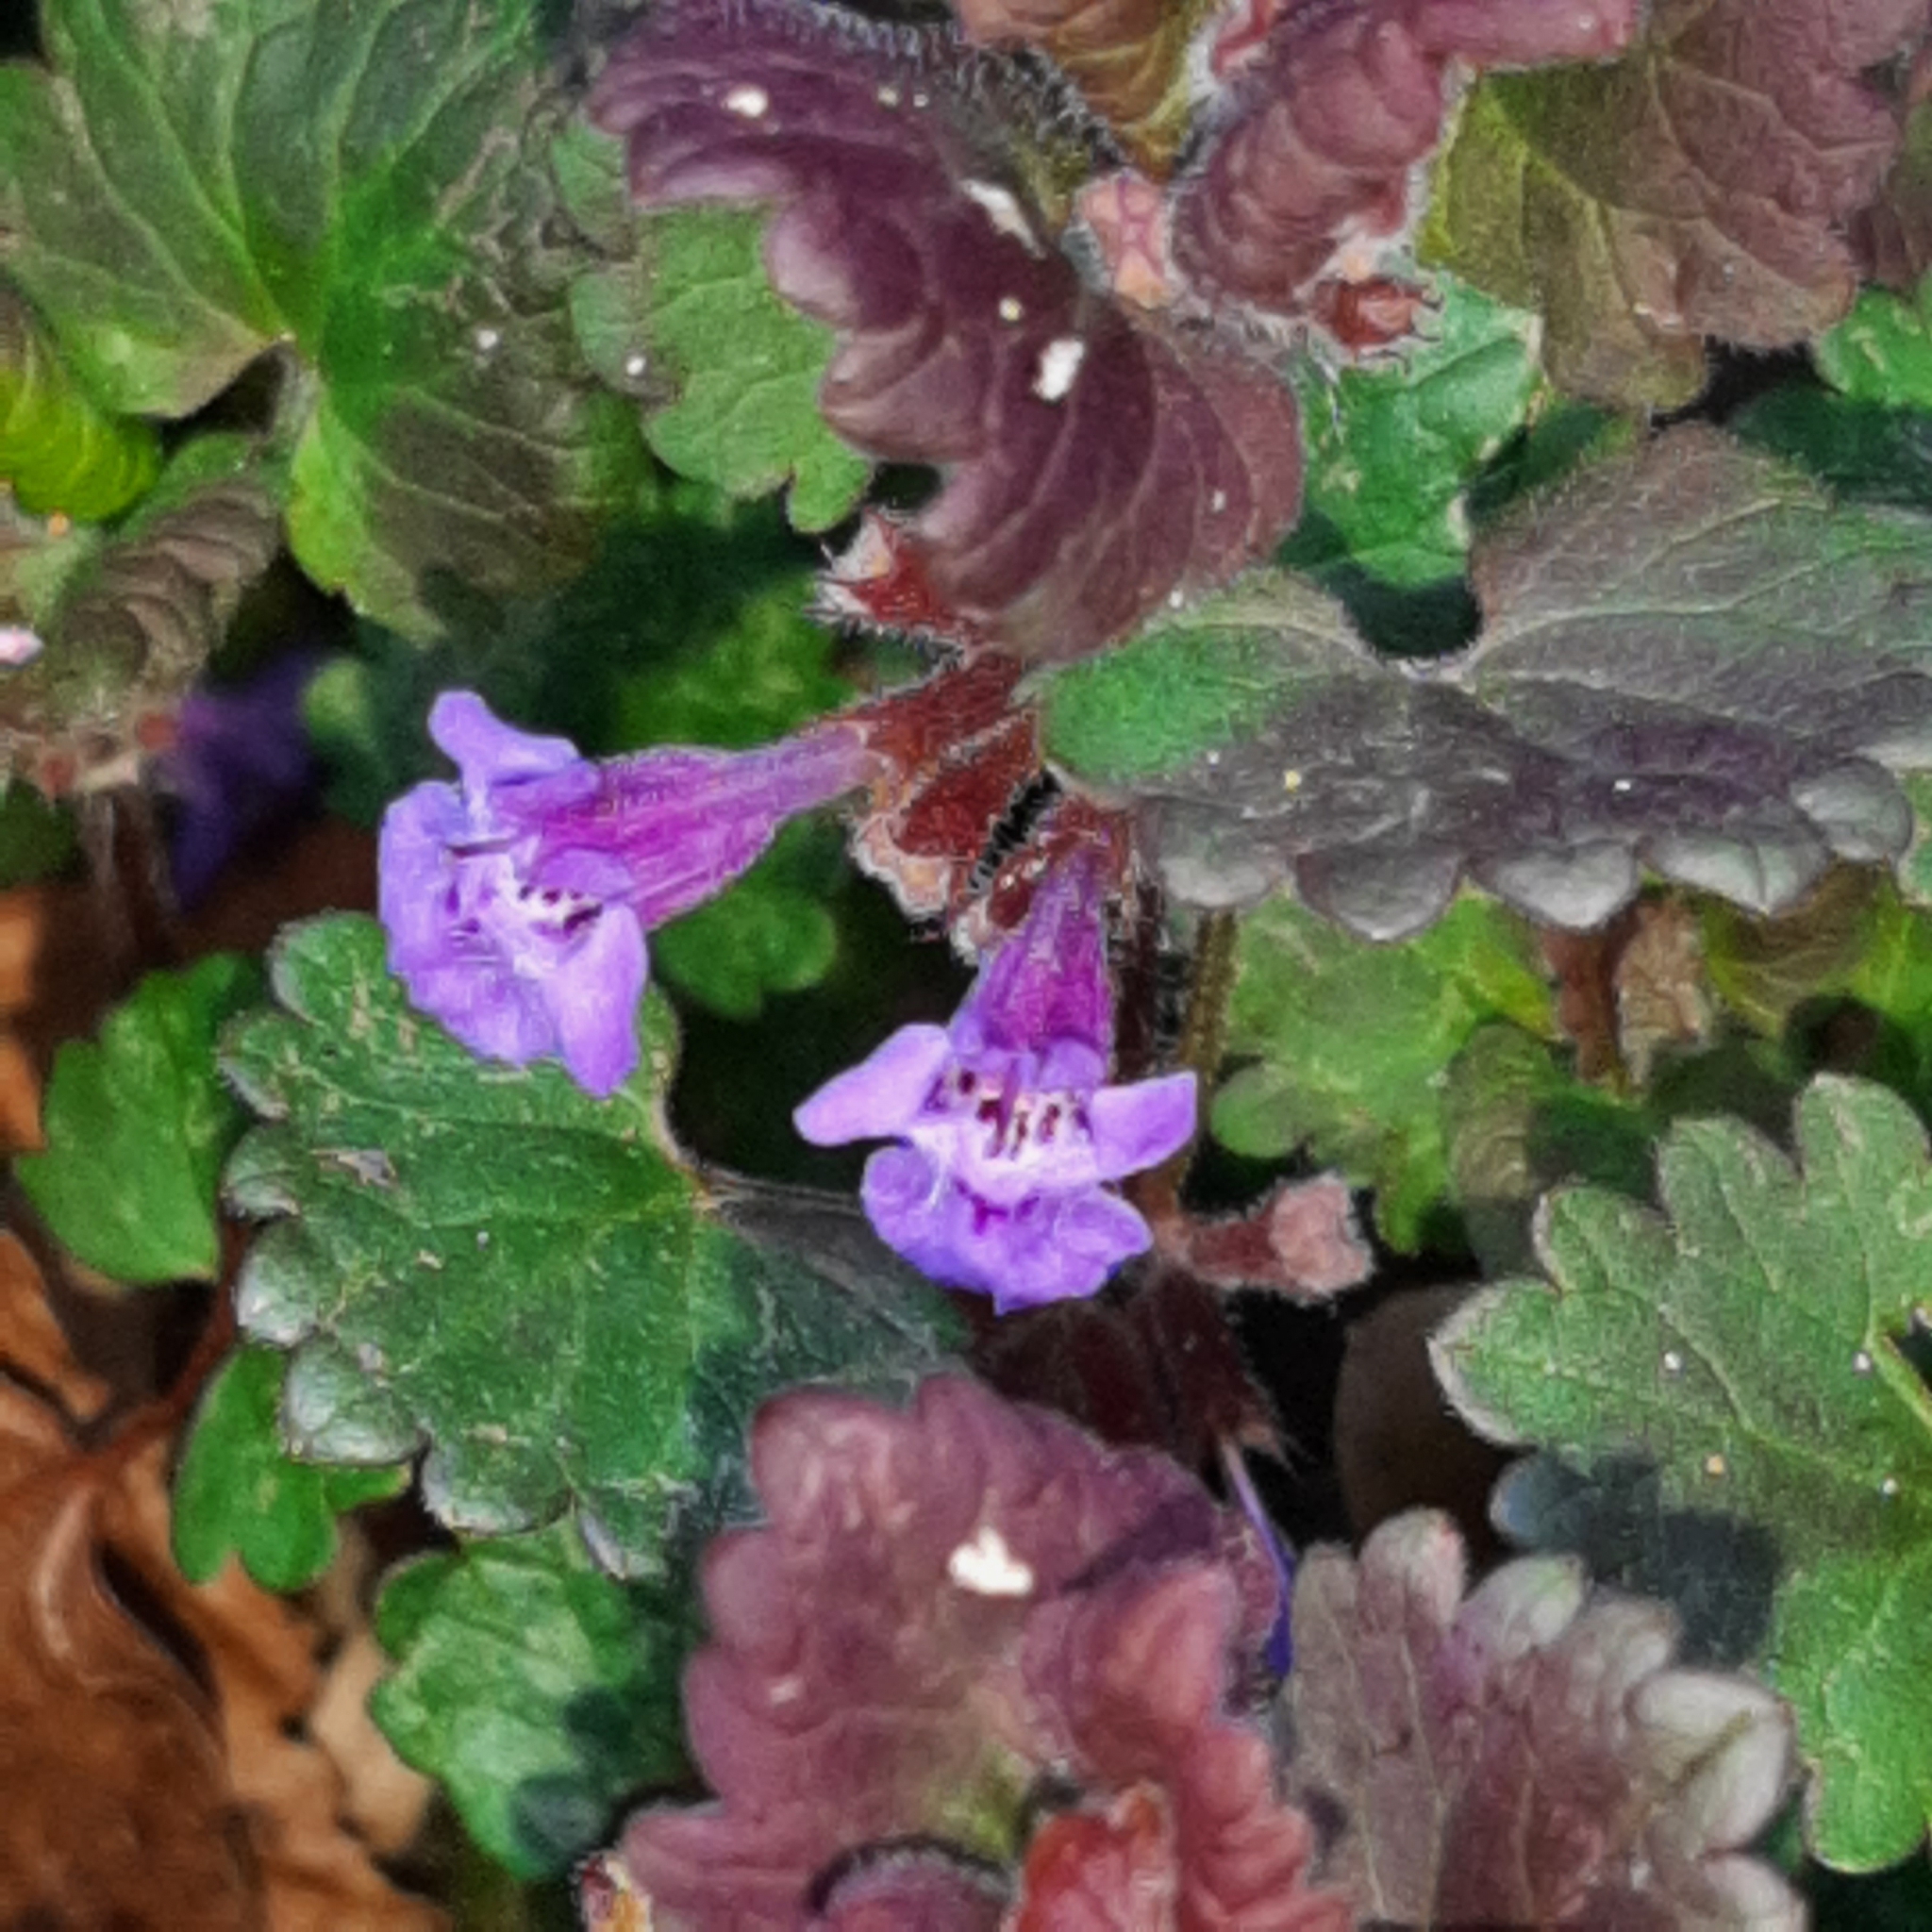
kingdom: Plantae
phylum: Tracheophyta
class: Magnoliopsida
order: Lamiales
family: Lamiaceae
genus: Glechoma
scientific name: Glechoma hederacea
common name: Ground ivy
